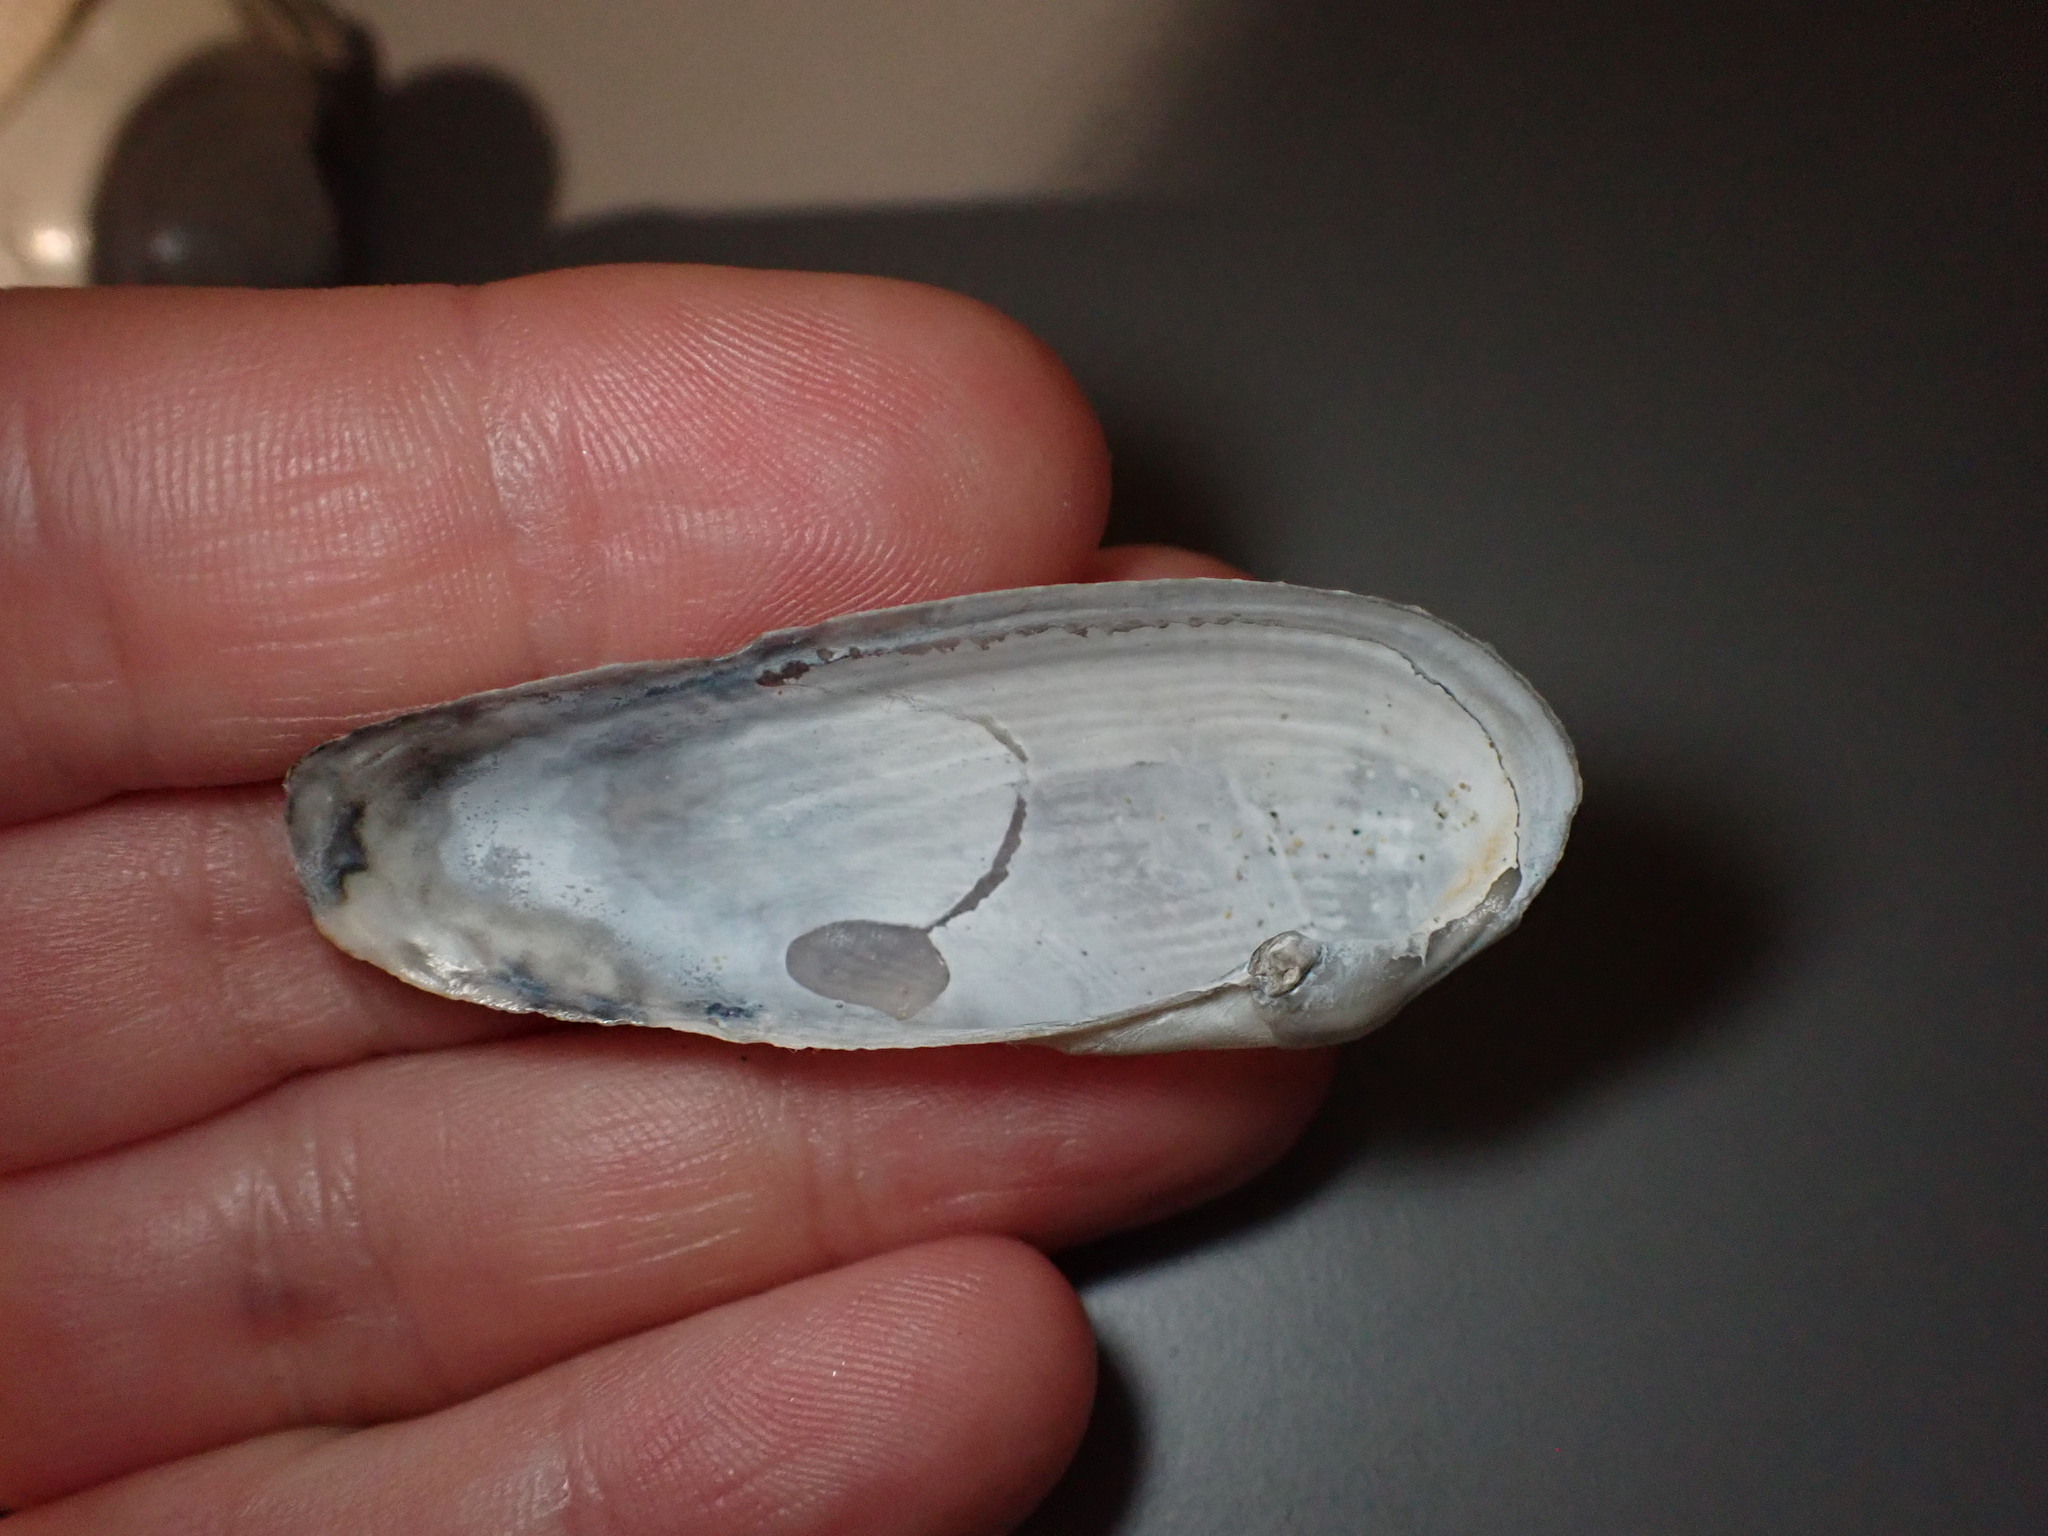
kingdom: Animalia
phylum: Mollusca
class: Bivalvia
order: Myida
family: Pholadidae
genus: Barnea
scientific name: Barnea candida
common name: White piddock
